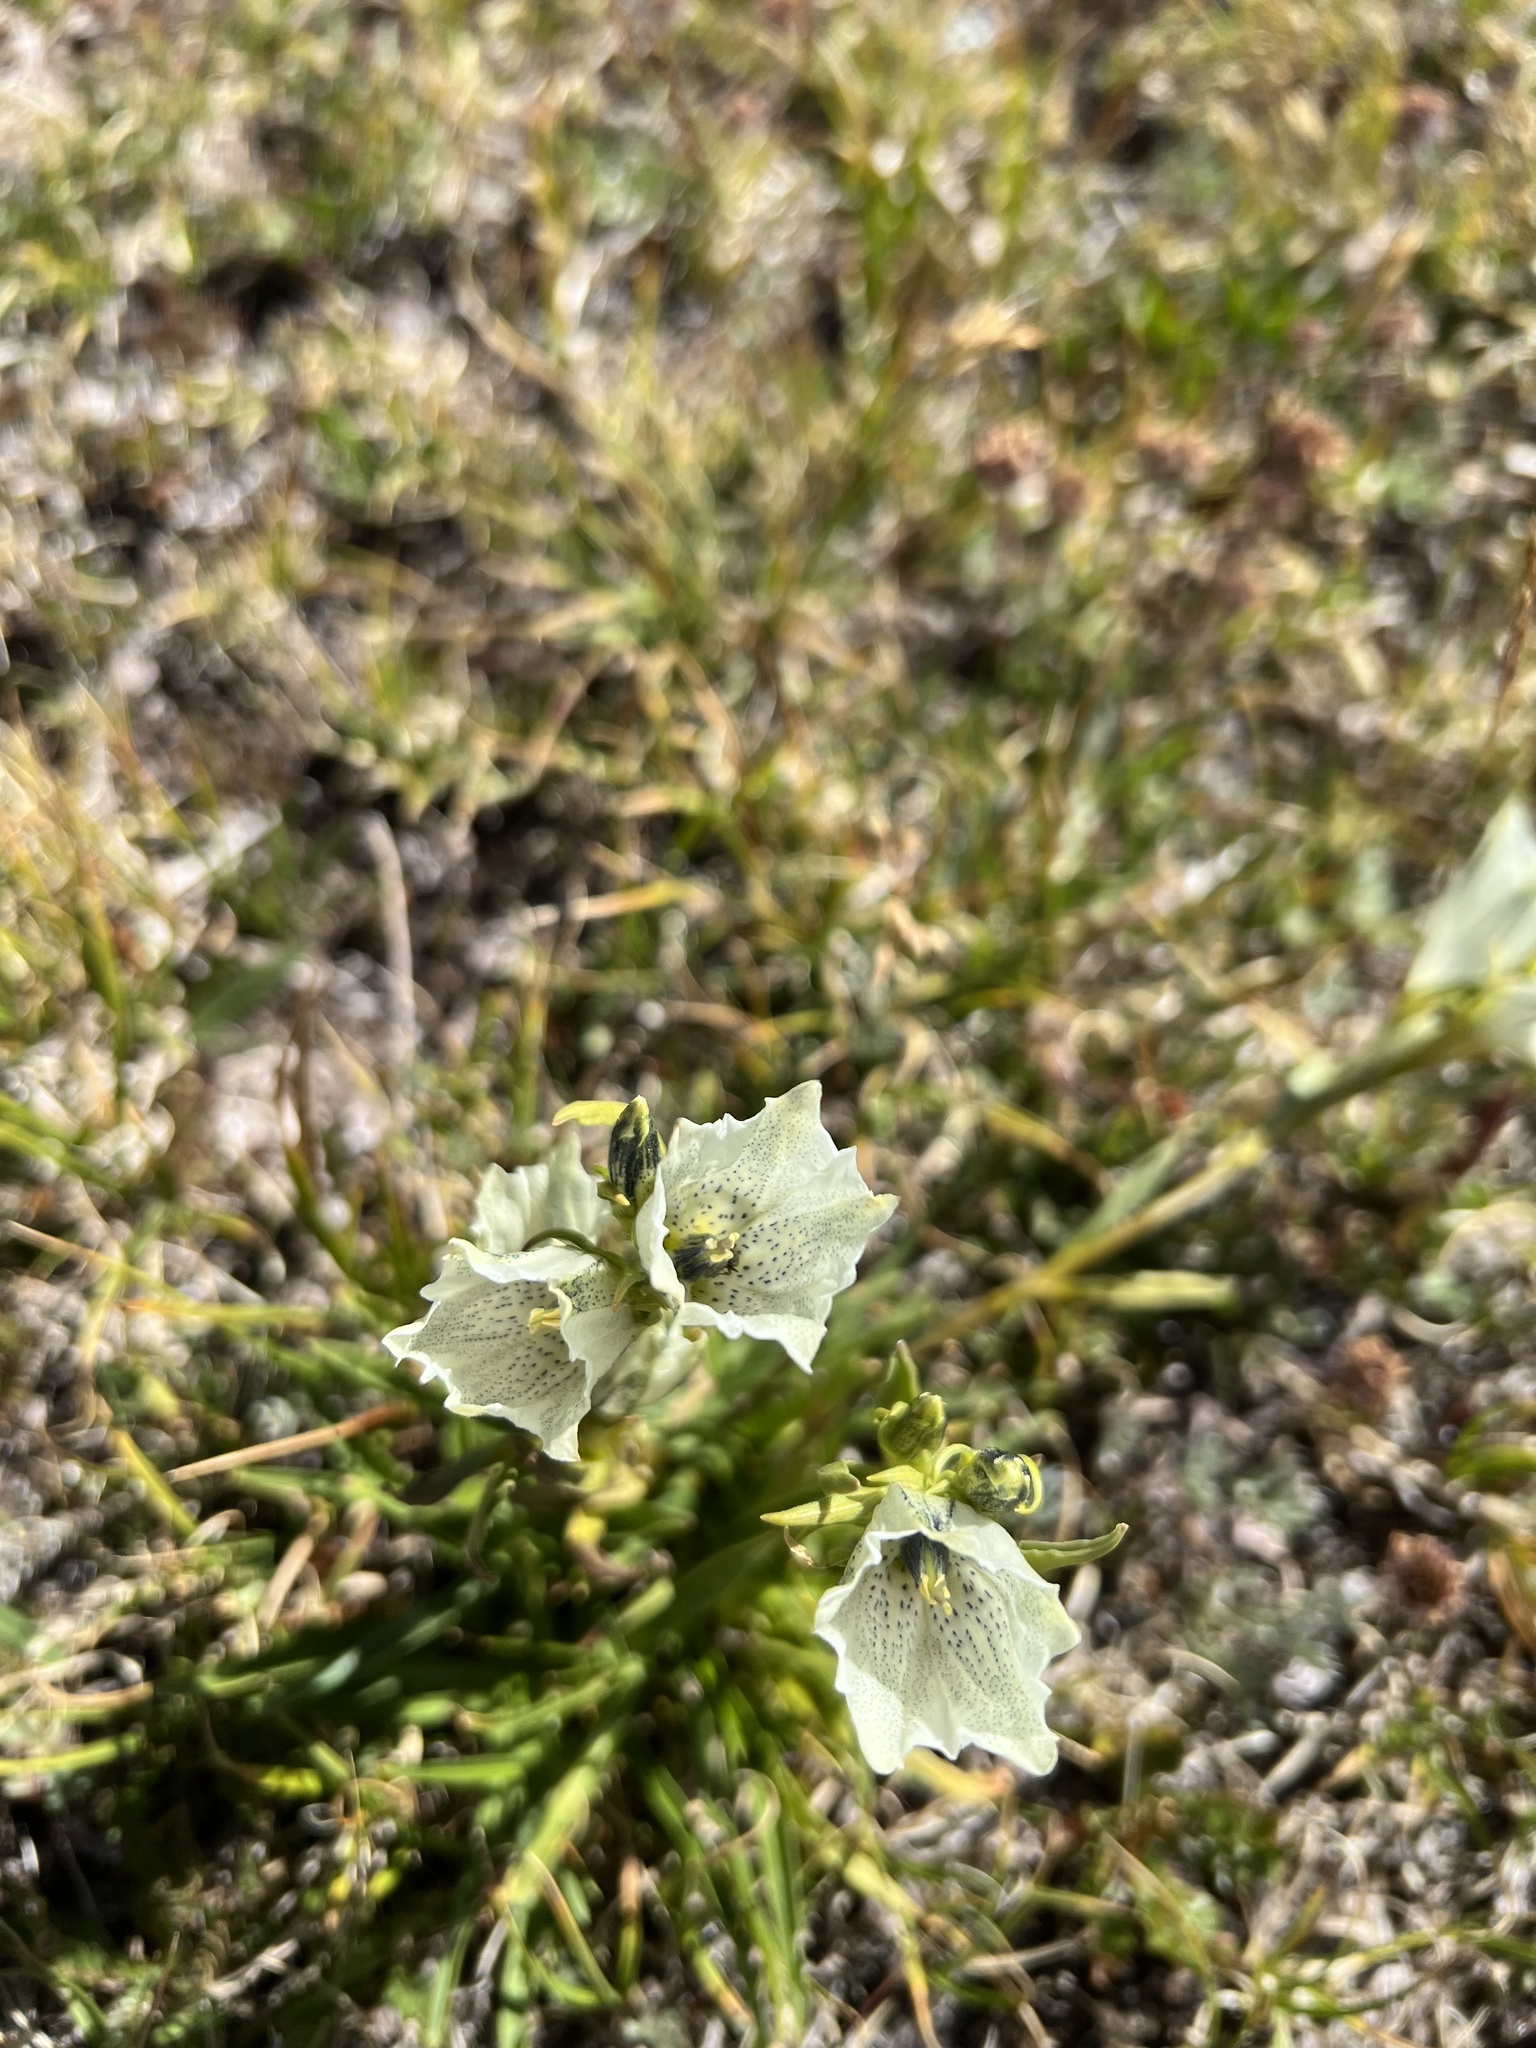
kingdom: Plantae
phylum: Tracheophyta
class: Magnoliopsida
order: Gentianales
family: Gentianaceae
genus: Gentiana
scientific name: Gentiana algida
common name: Arctic gentian
